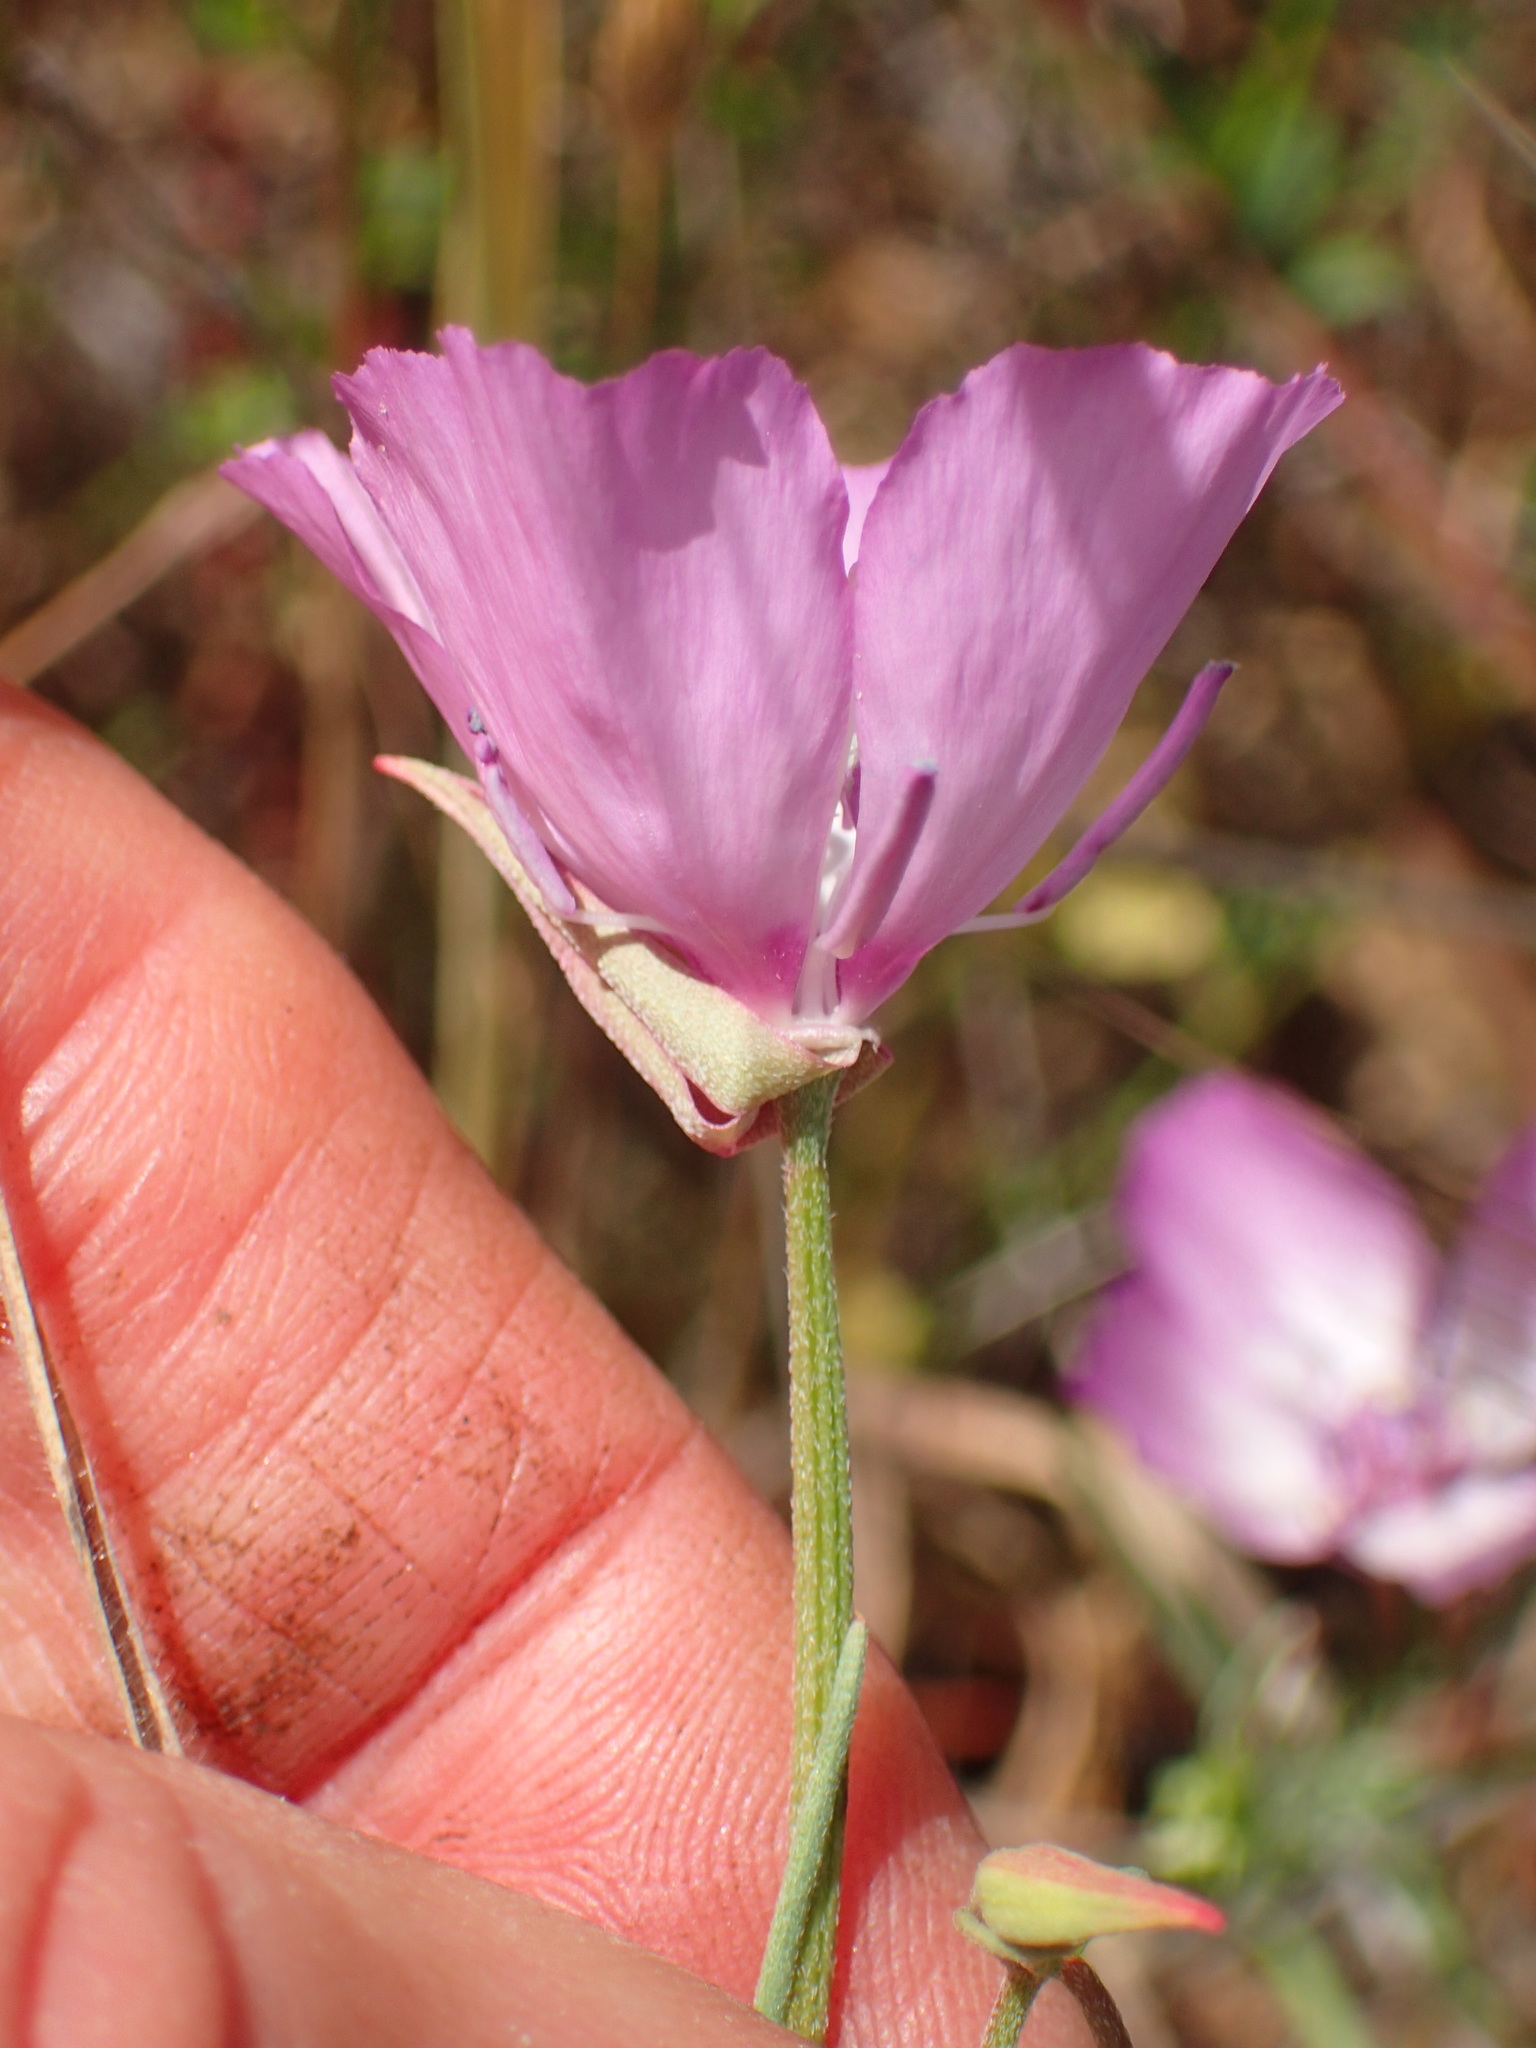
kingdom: Plantae
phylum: Tracheophyta
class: Magnoliopsida
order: Myrtales
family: Onagraceae
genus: Clarkia
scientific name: Clarkia cylindrica
